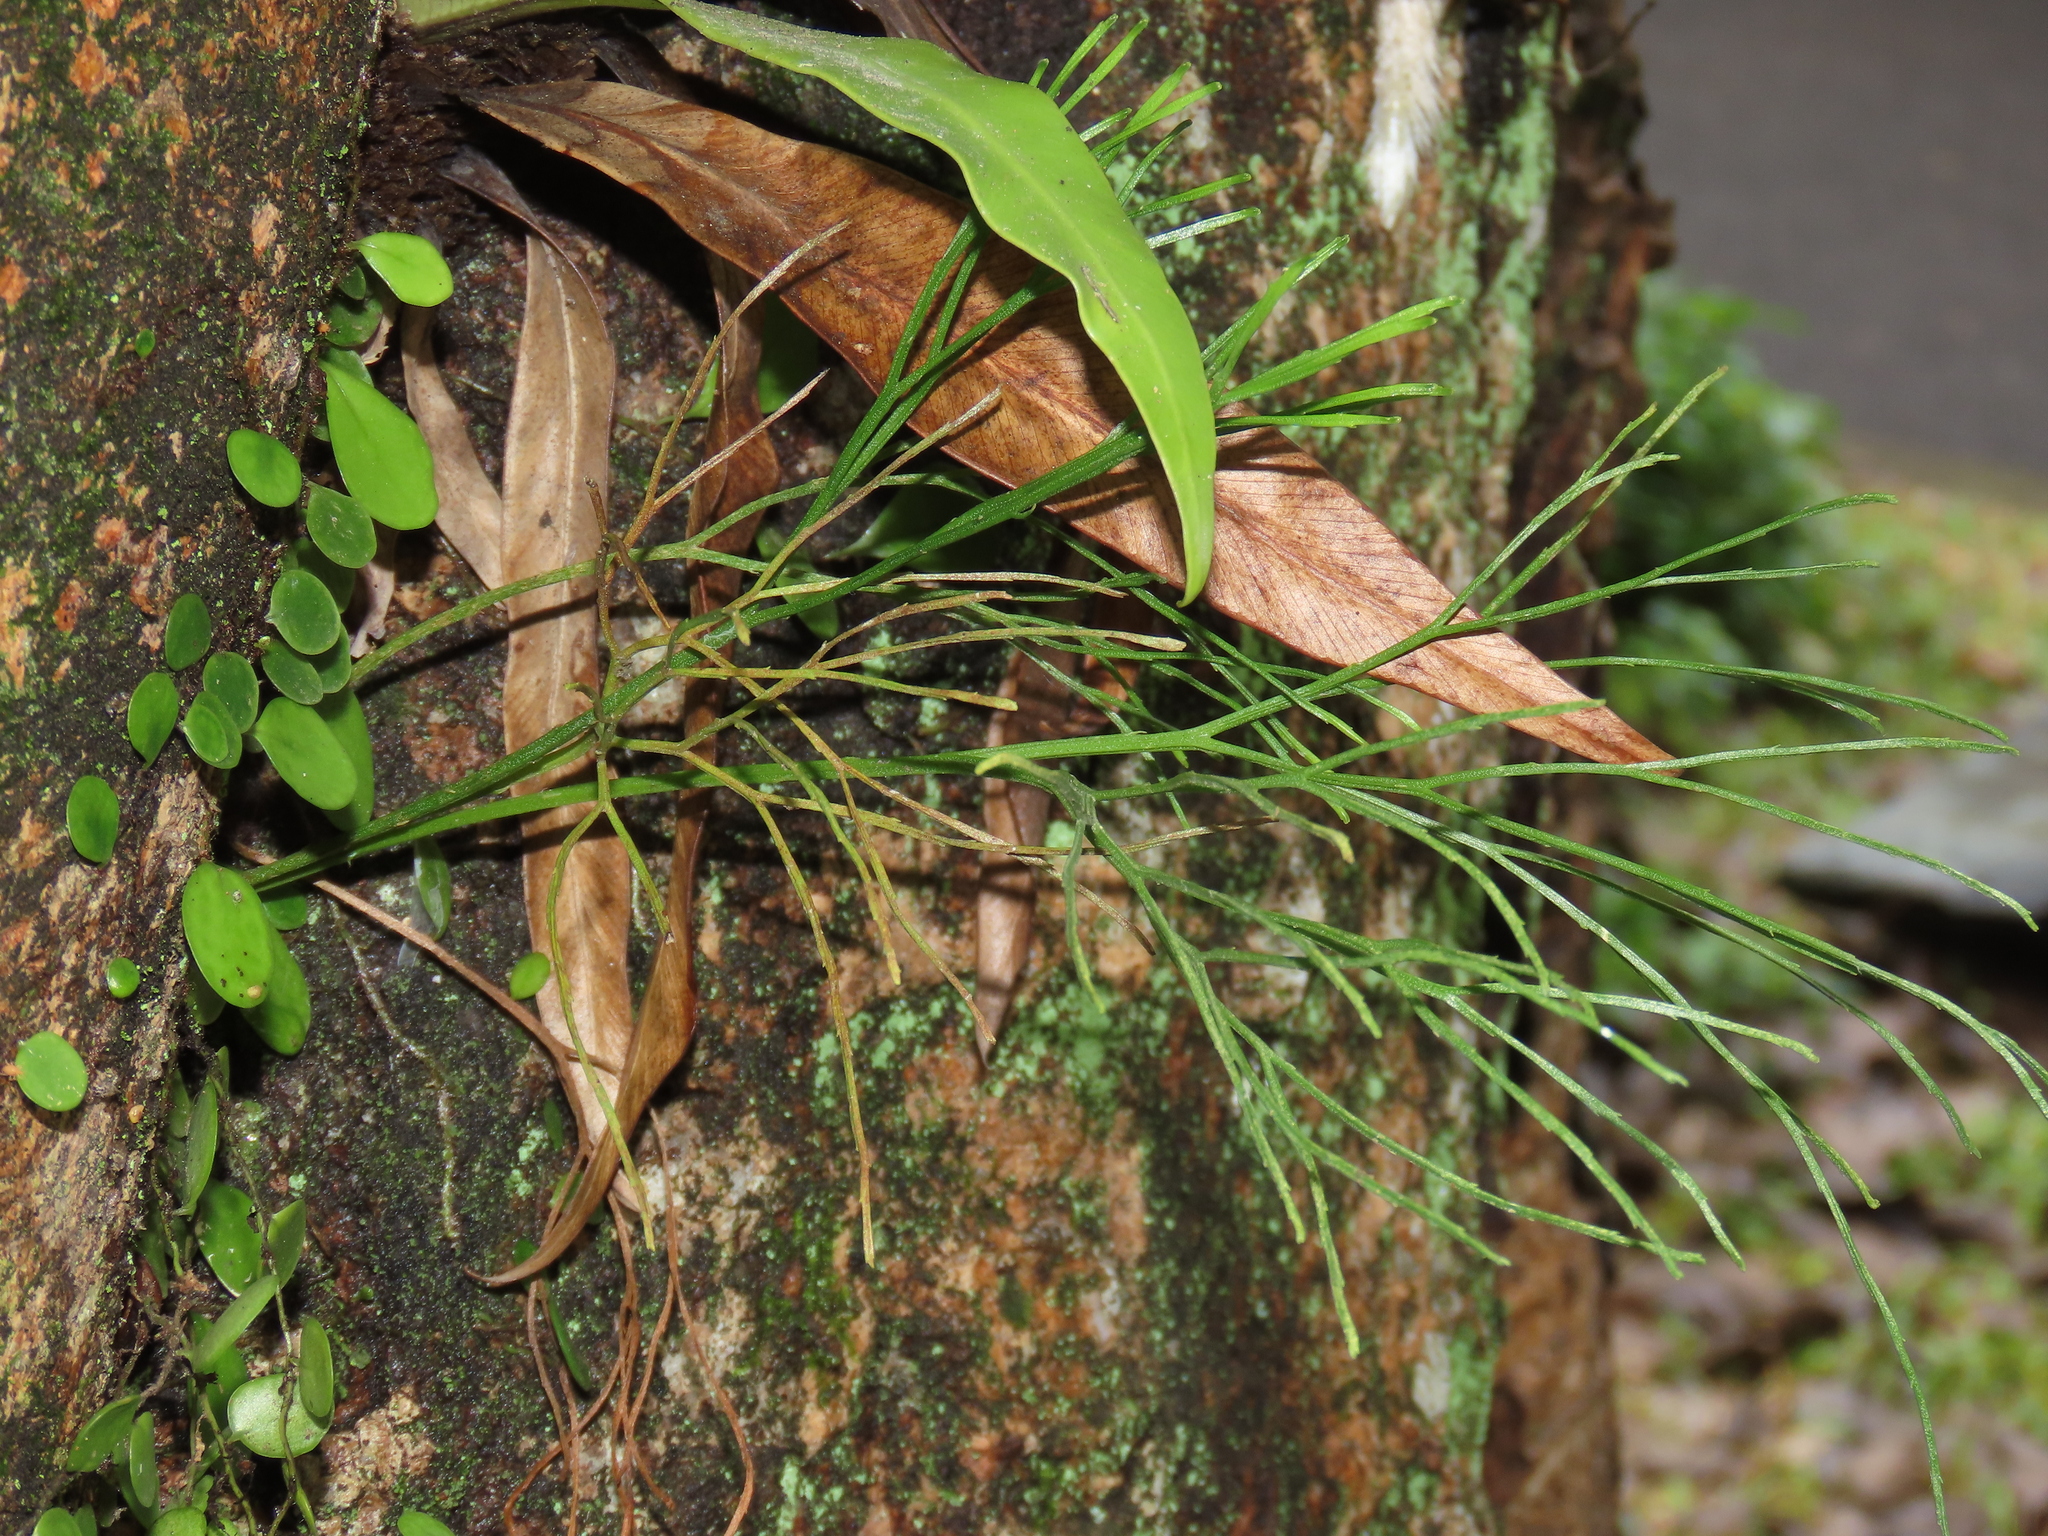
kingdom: Plantae
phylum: Tracheophyta
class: Polypodiopsida
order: Psilotales
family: Psilotaceae
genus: Psilotum
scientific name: Psilotum nudum
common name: Skeleton fork fern
